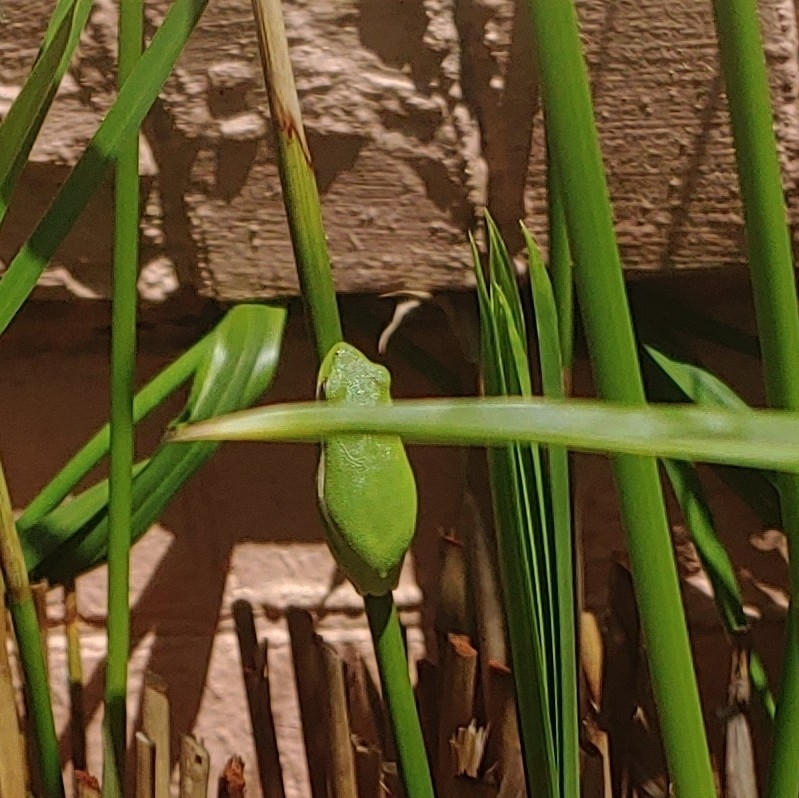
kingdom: Animalia
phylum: Chordata
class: Amphibia
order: Anura
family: Hylidae
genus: Dryophytes
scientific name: Dryophytes cinereus
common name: Green treefrog
